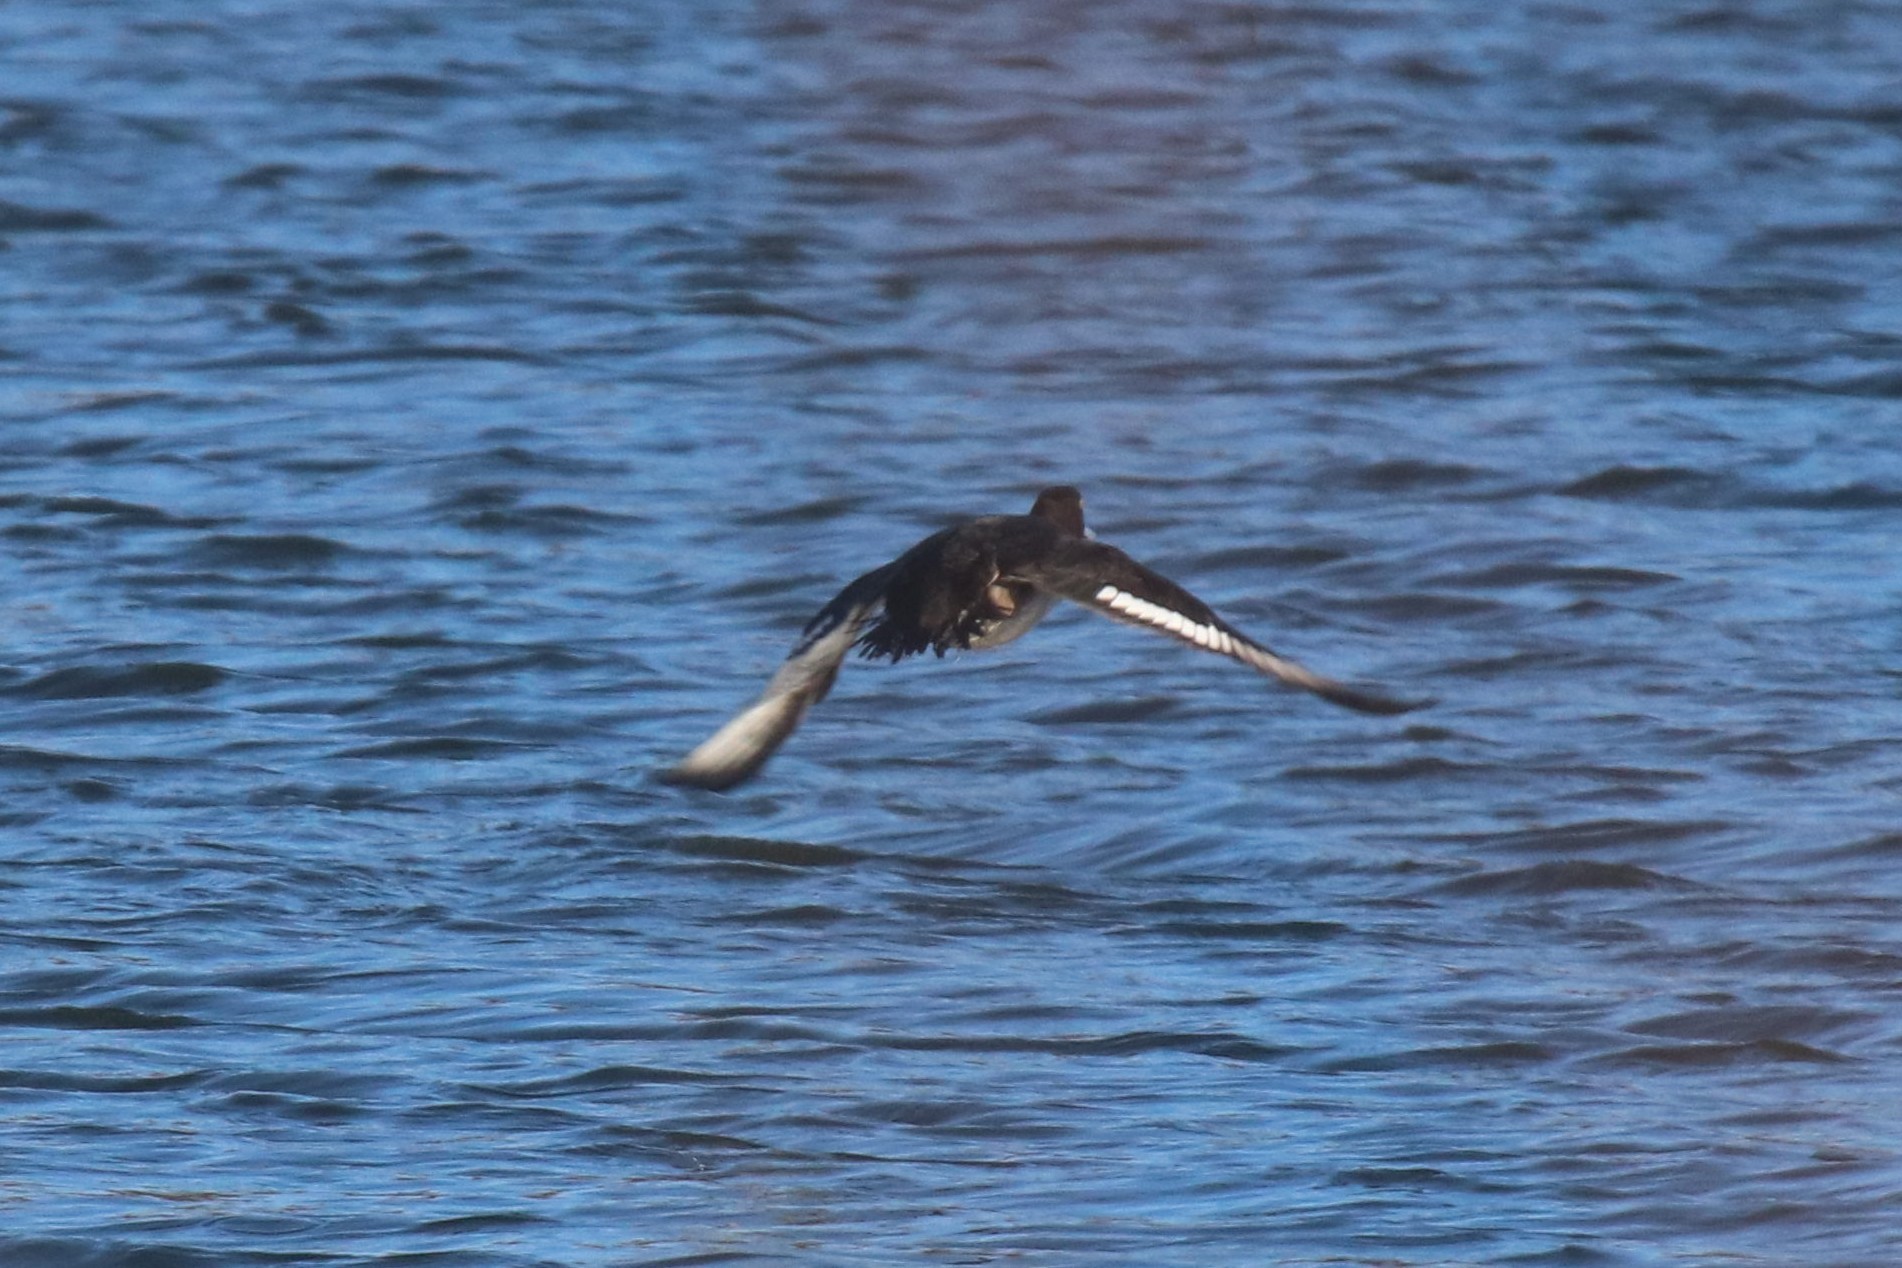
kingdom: Animalia
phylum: Chordata
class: Aves
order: Anseriformes
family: Anatidae
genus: Aythya
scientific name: Aythya fuligula
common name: Tufted duck
